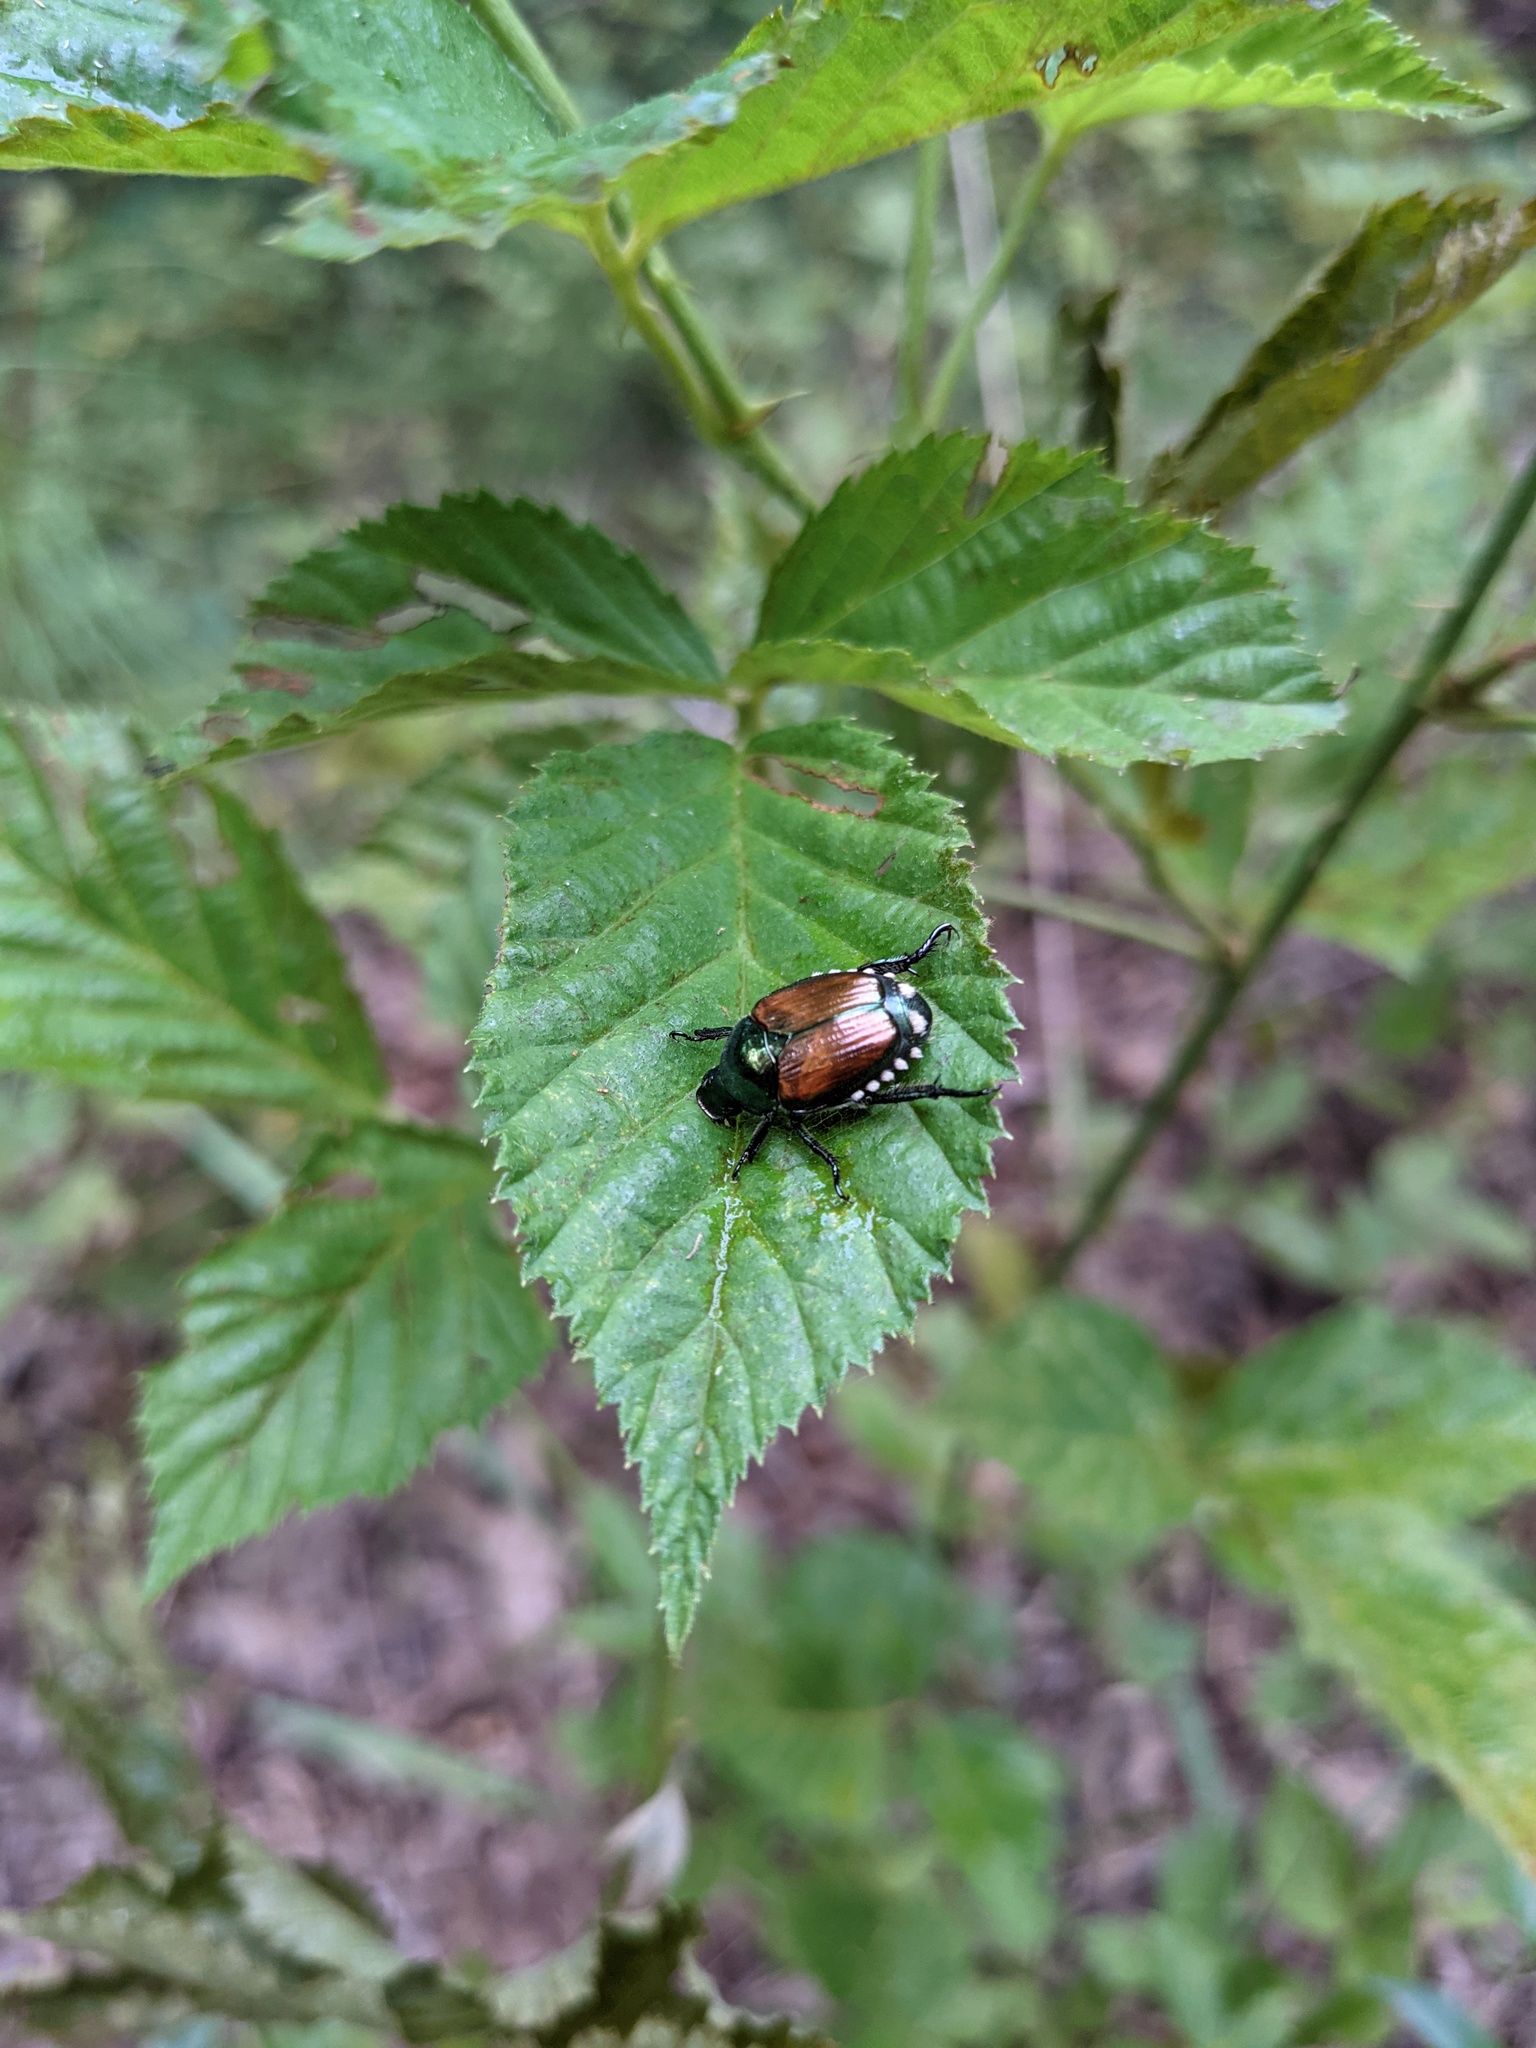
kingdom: Animalia
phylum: Arthropoda
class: Insecta
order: Coleoptera
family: Scarabaeidae
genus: Popillia
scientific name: Popillia japonica
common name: Japanese beetle
